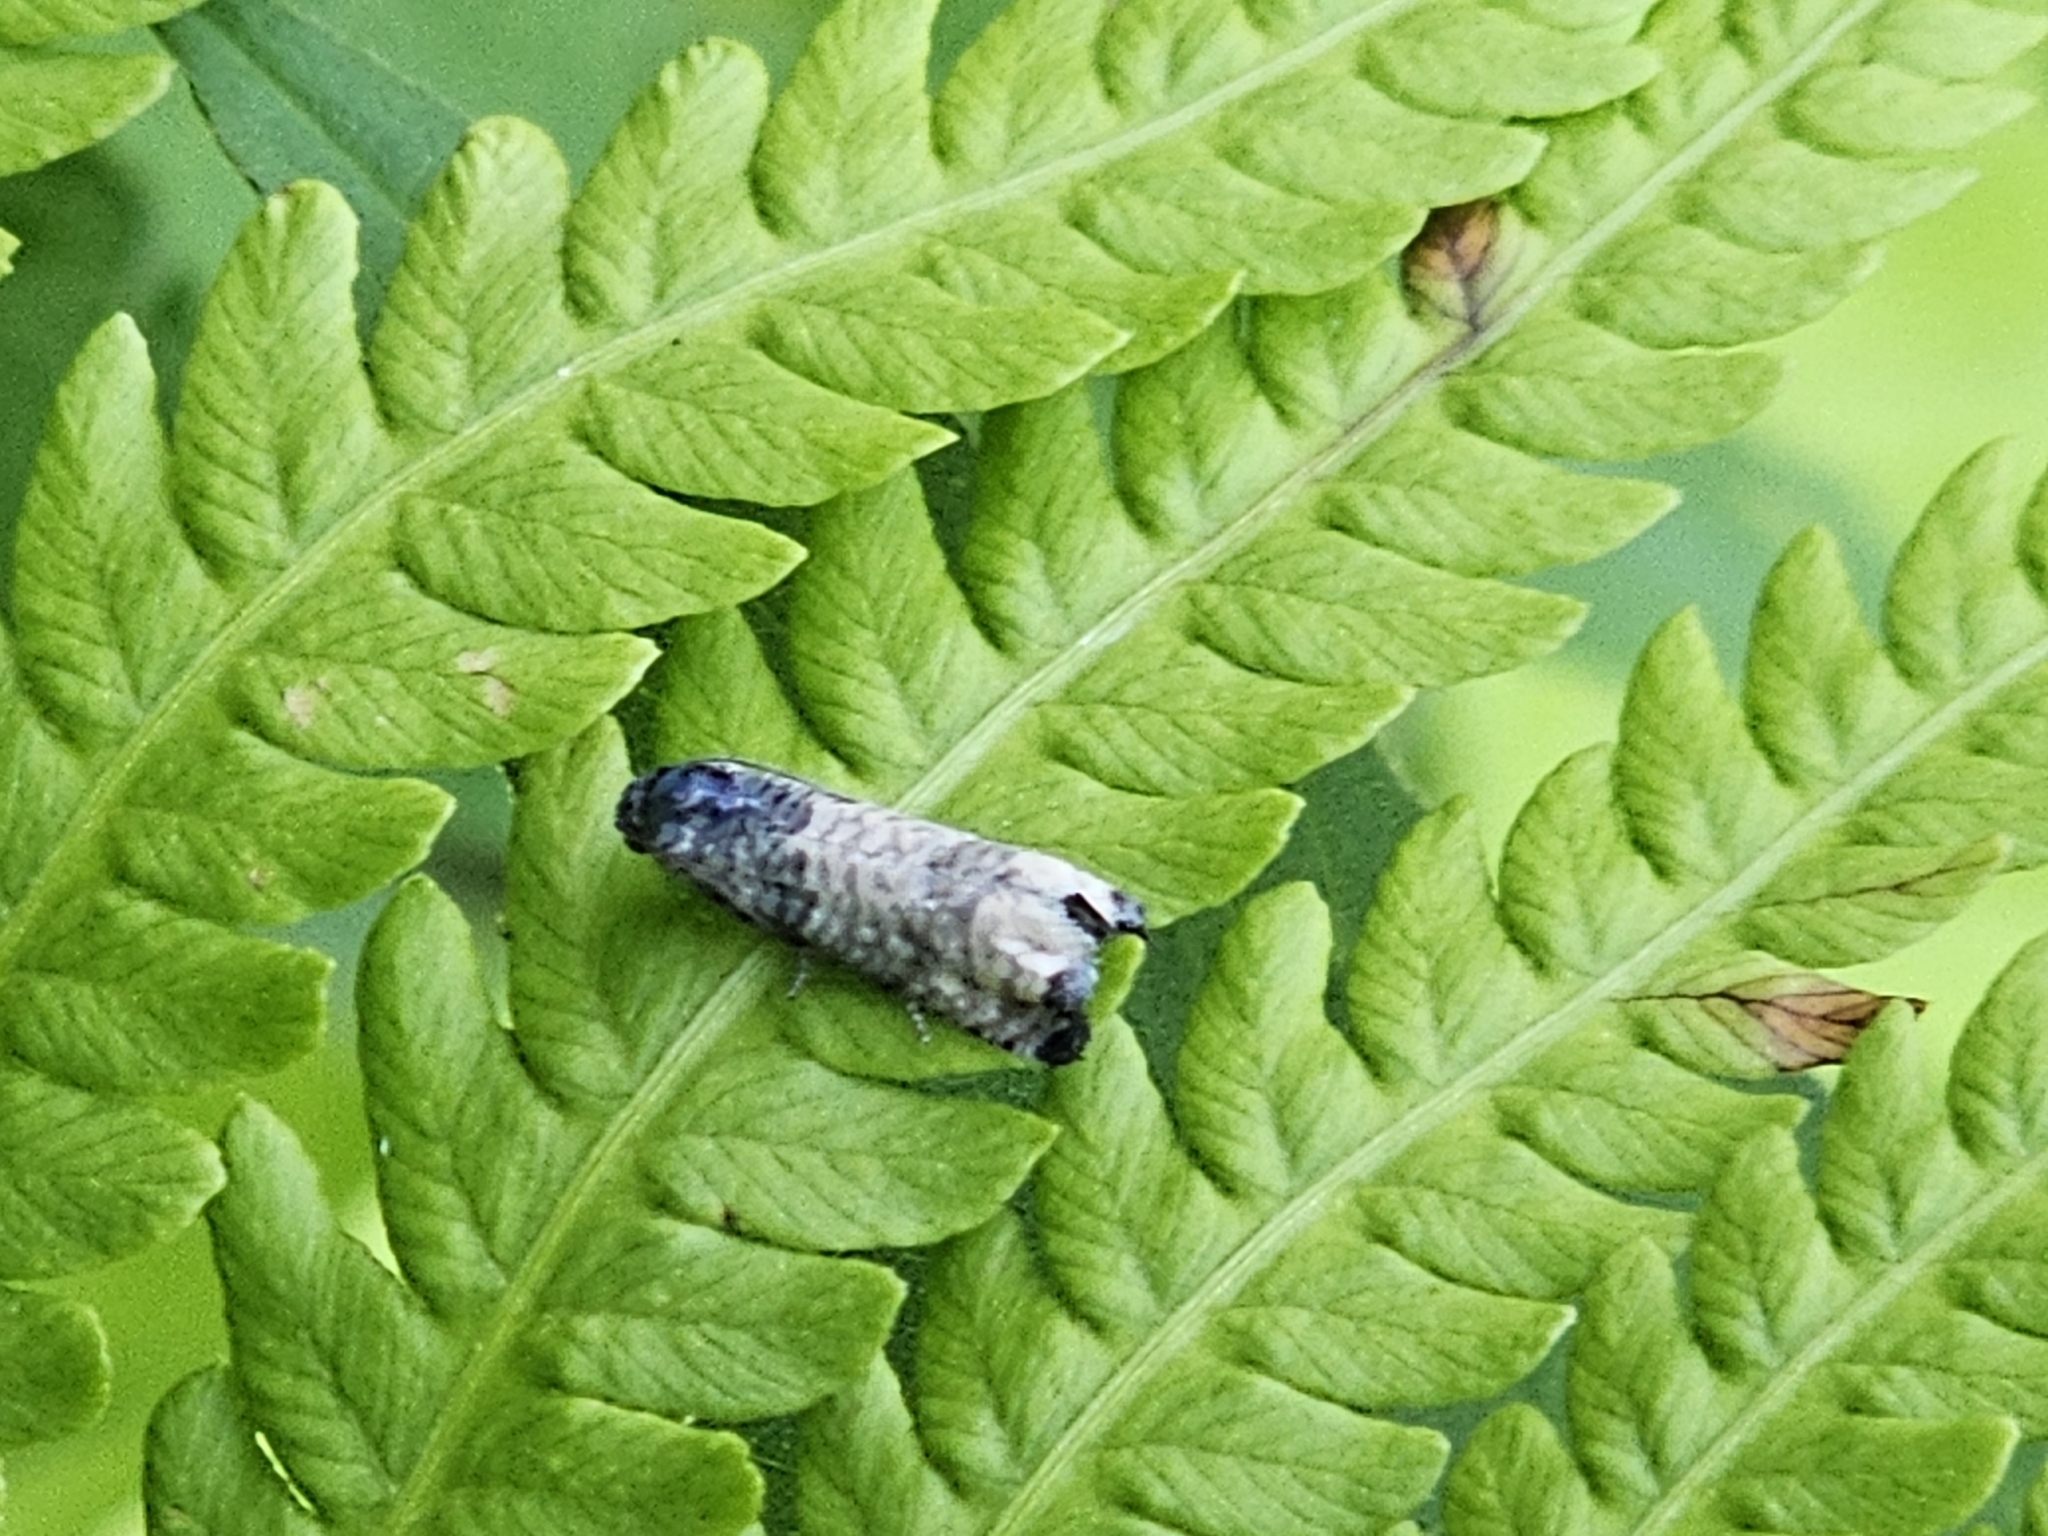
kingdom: Animalia
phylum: Arthropoda
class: Insecta
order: Lepidoptera
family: Tortricidae
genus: Epiblema
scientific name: Epiblema obfuscana
